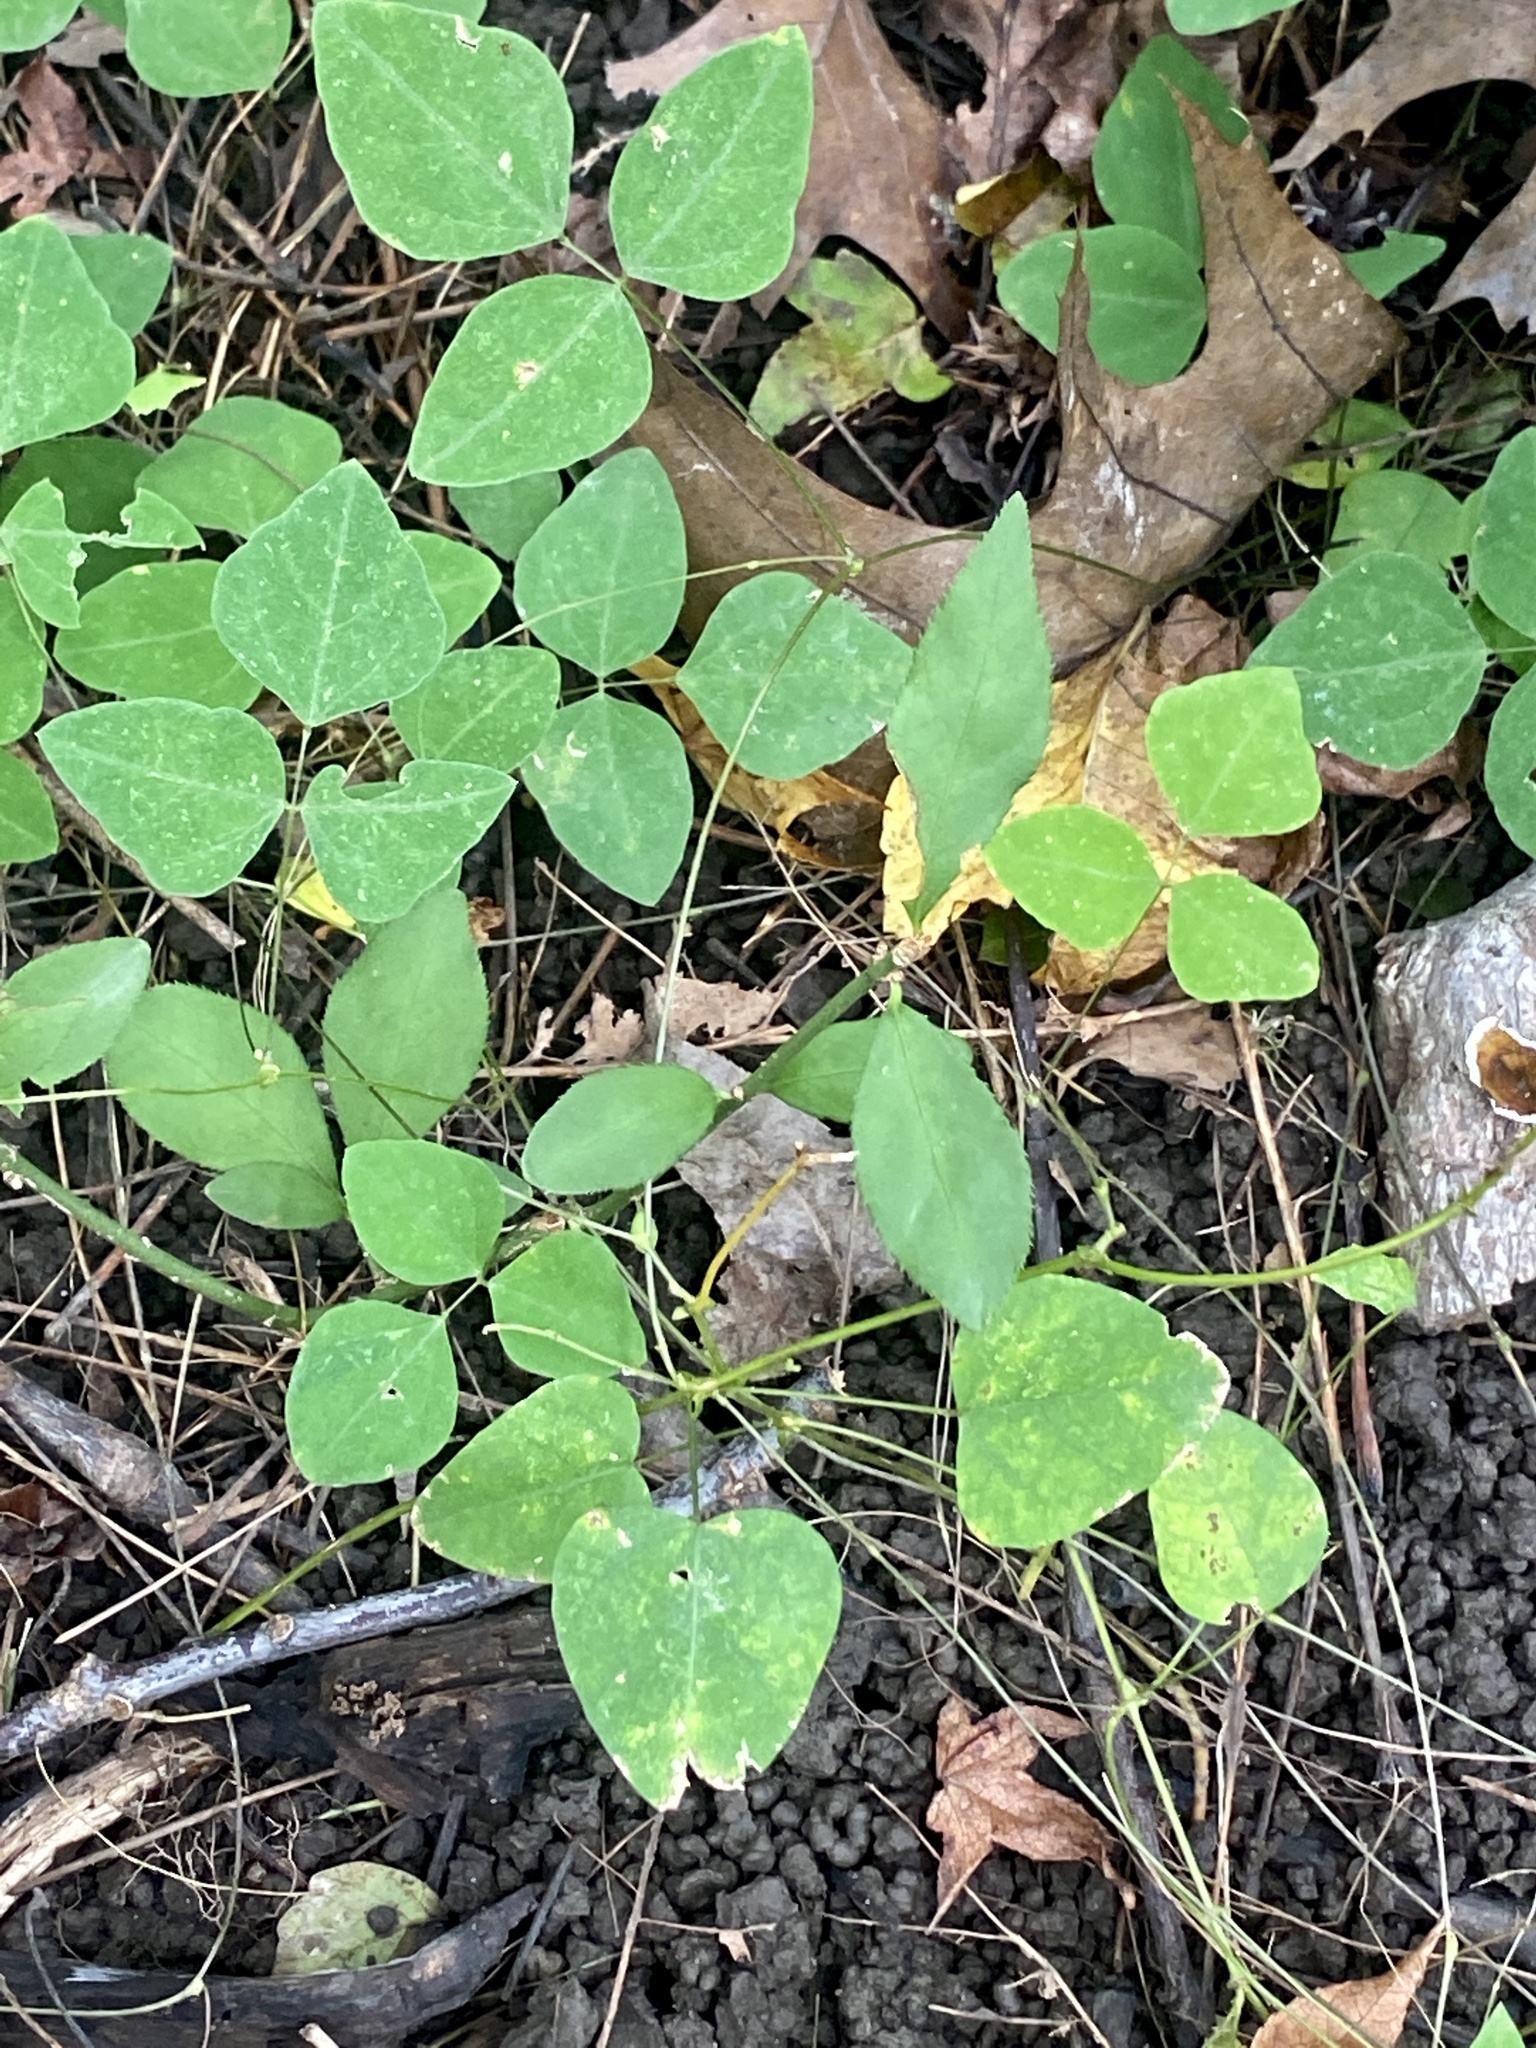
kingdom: Plantae
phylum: Tracheophyta
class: Magnoliopsida
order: Fabales
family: Fabaceae
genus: Amphicarpaea
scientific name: Amphicarpaea bracteata
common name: American hog peanut
